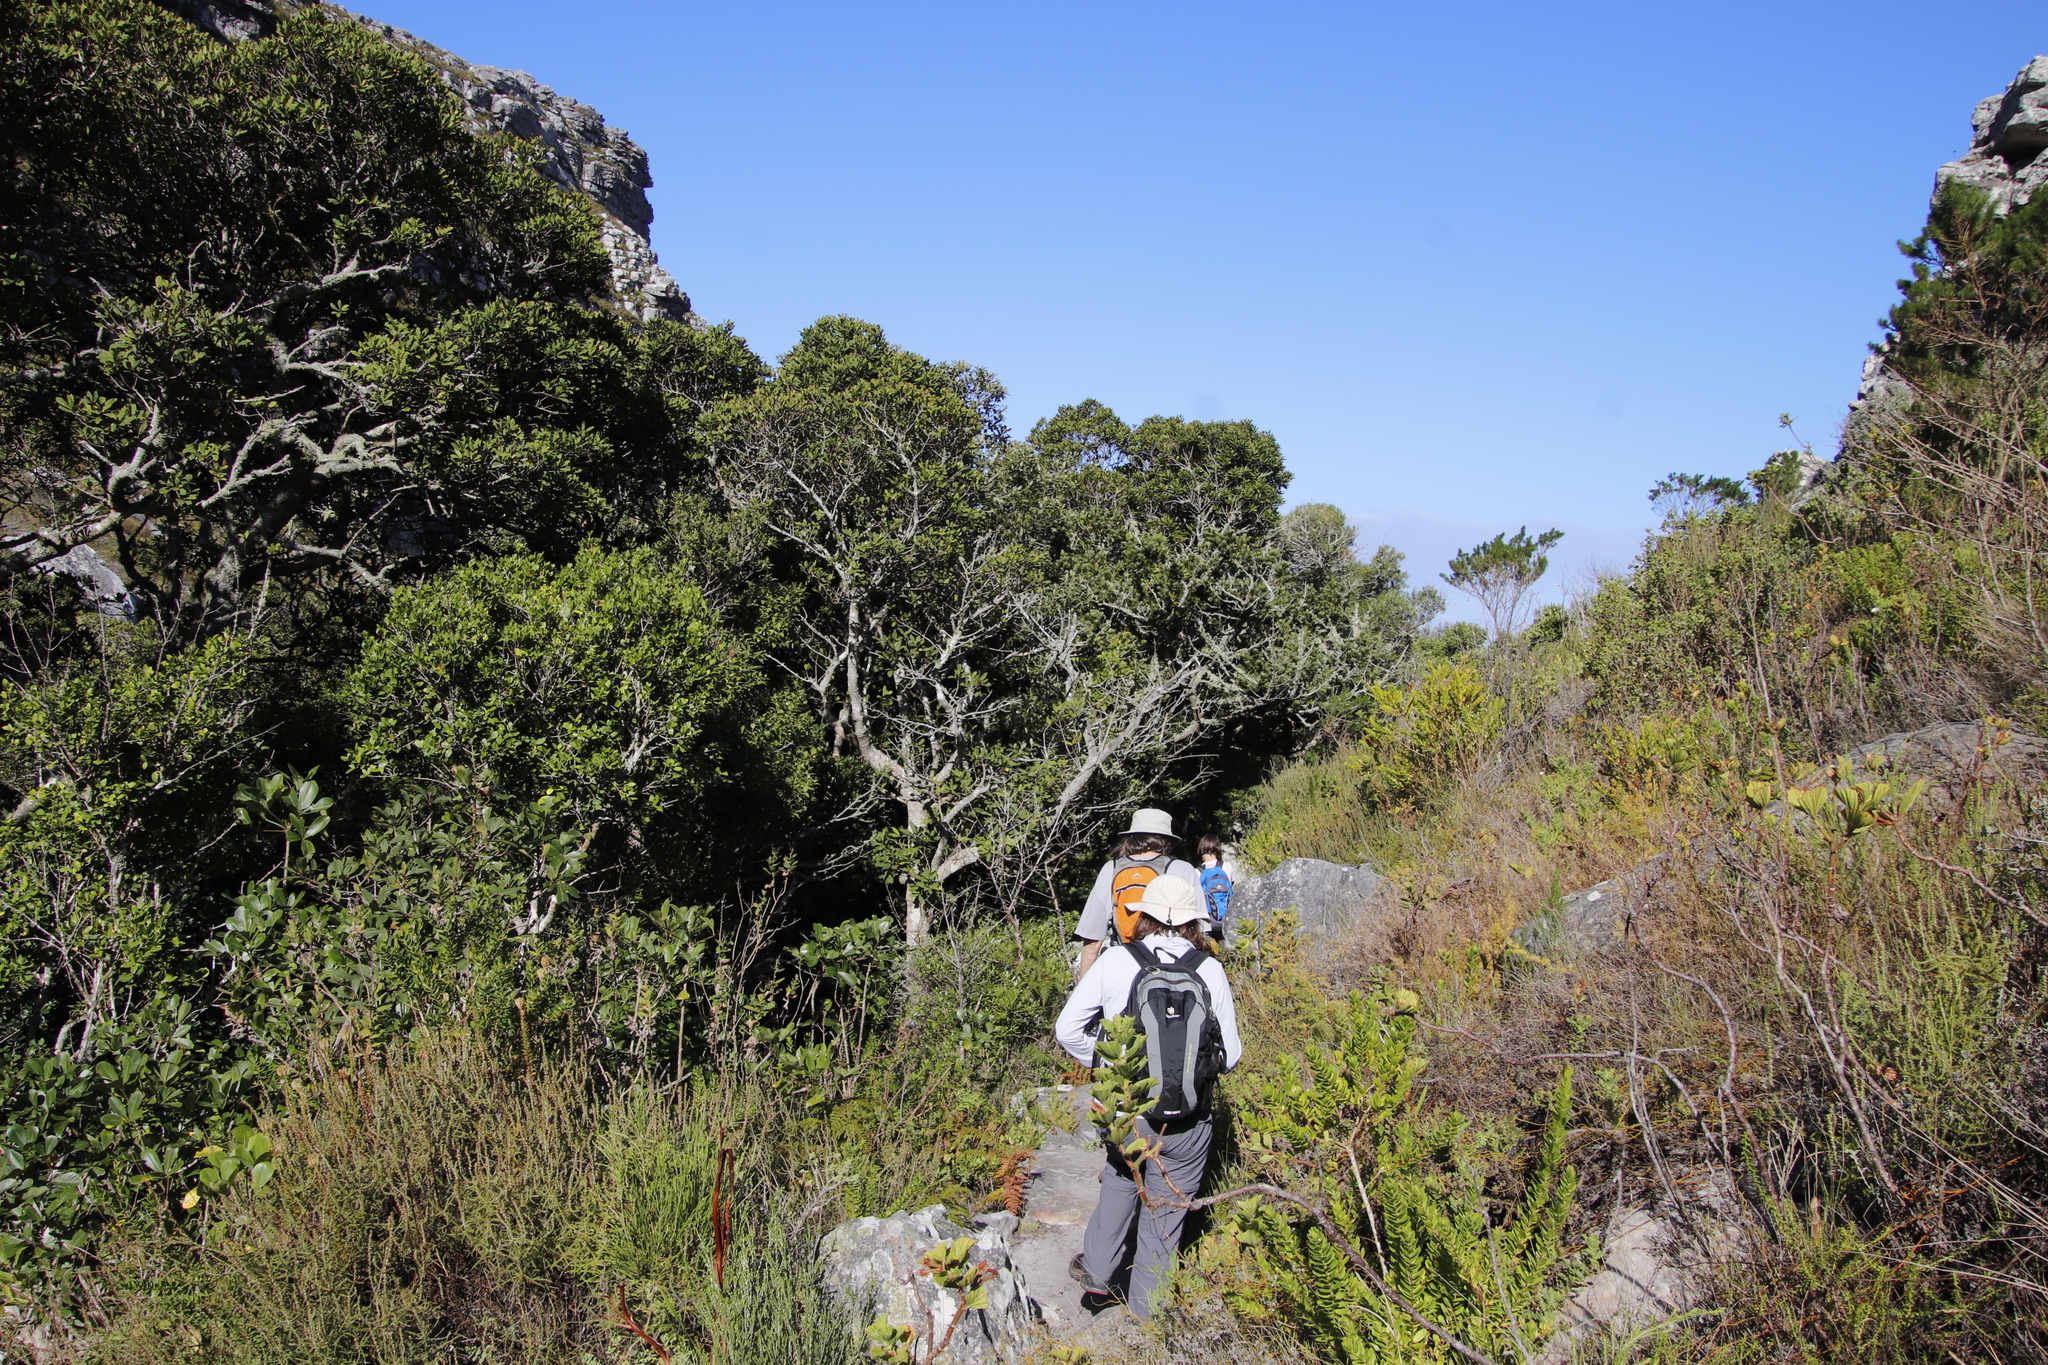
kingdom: Plantae
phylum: Tracheophyta
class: Magnoliopsida
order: Ericales
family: Primulaceae
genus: Myrsine
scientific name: Myrsine melanophloeos
